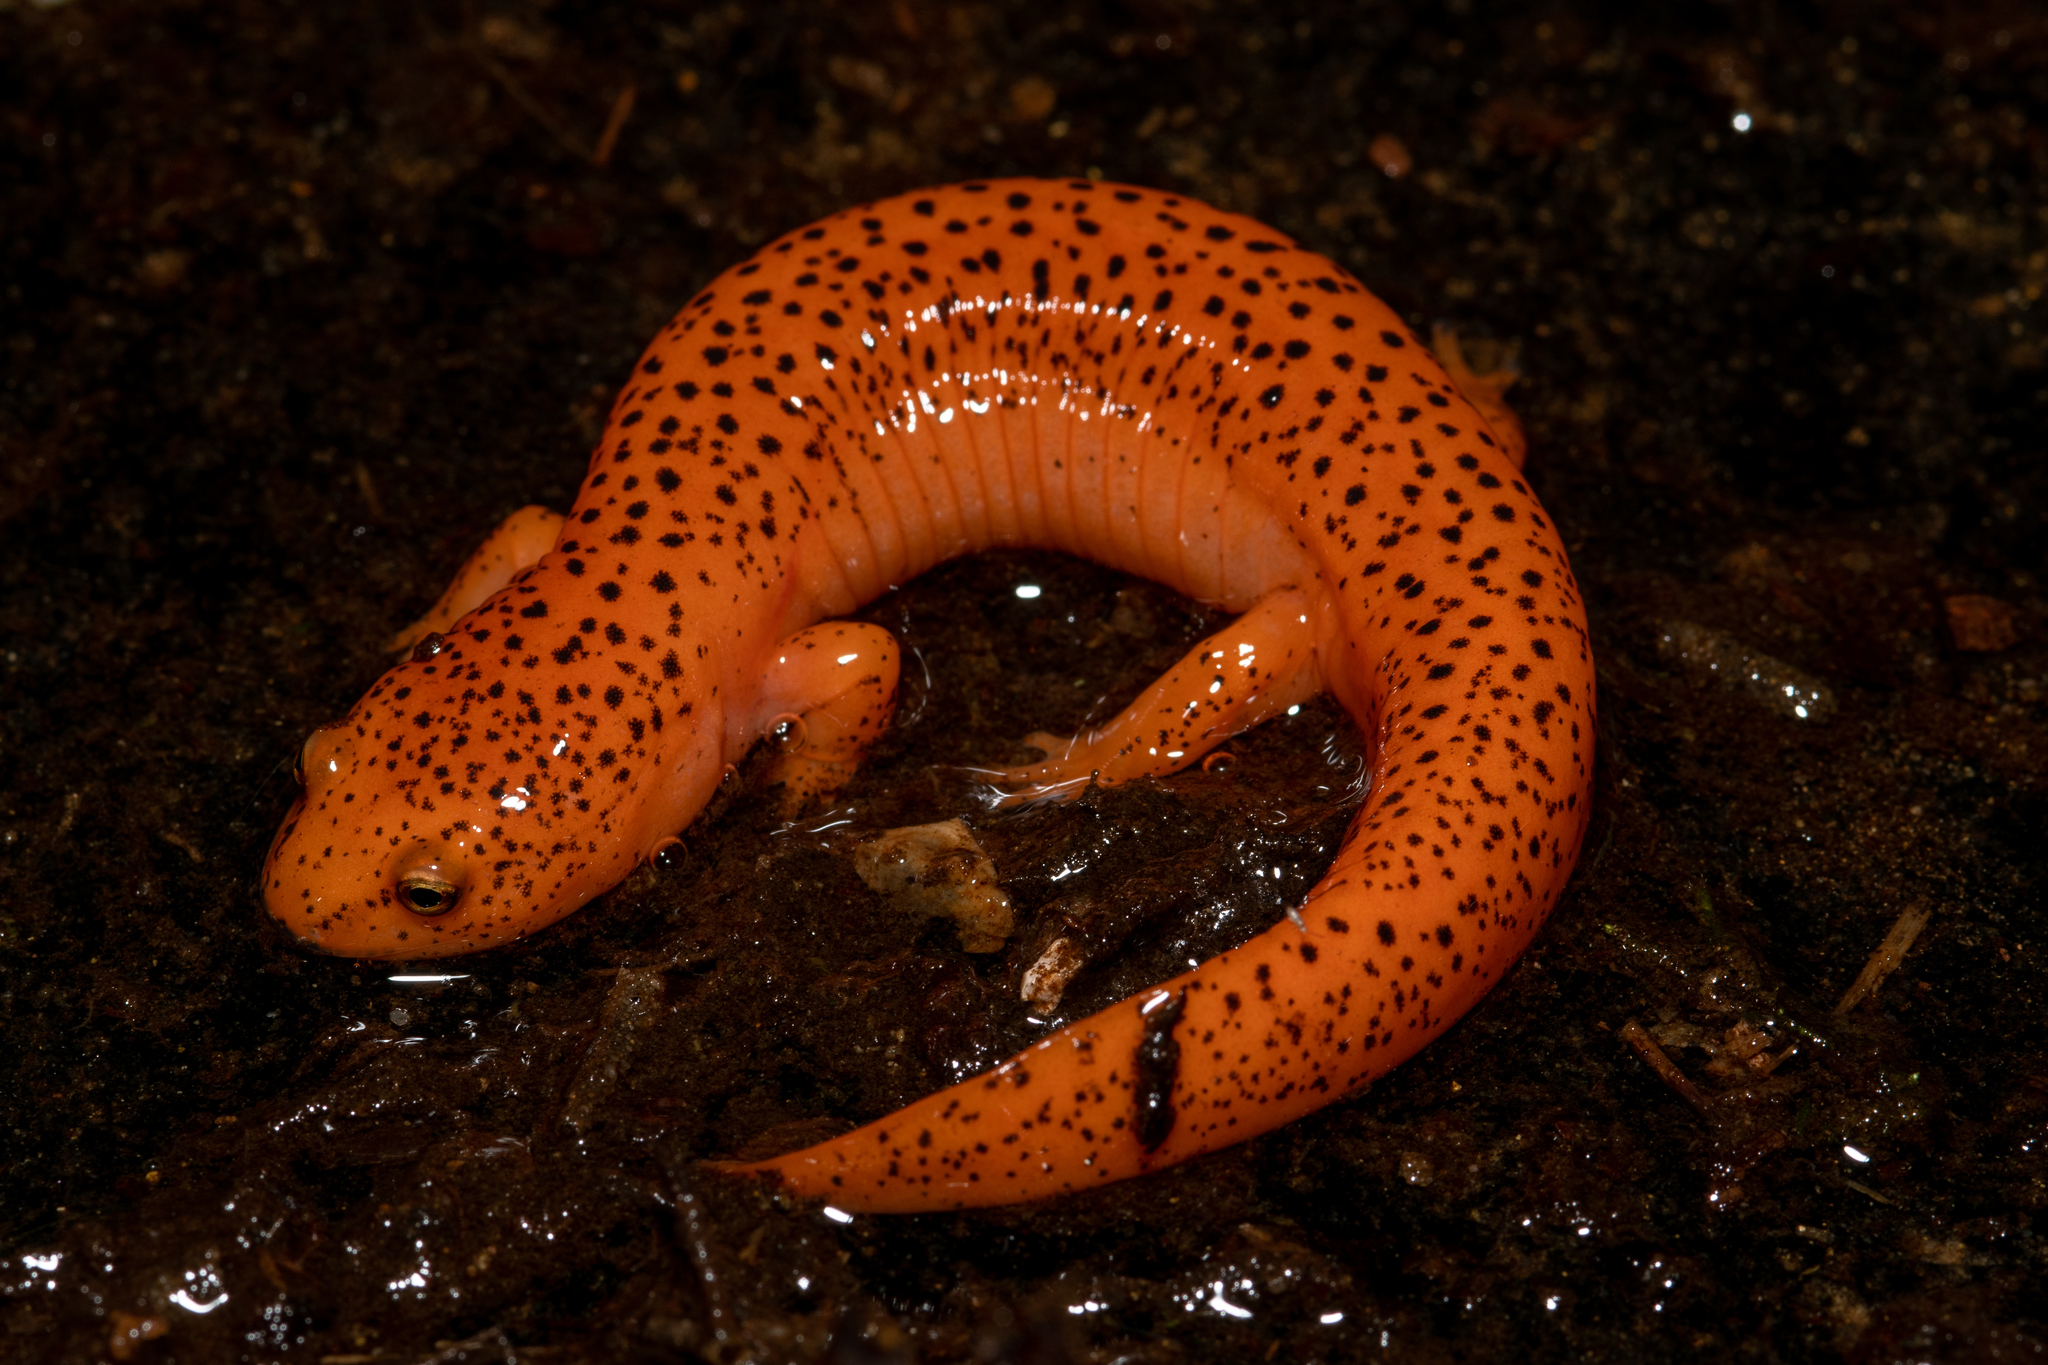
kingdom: Animalia
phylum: Chordata
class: Amphibia
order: Caudata
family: Plethodontidae
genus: Pseudotriton
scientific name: Pseudotriton ruber
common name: Red salamander
